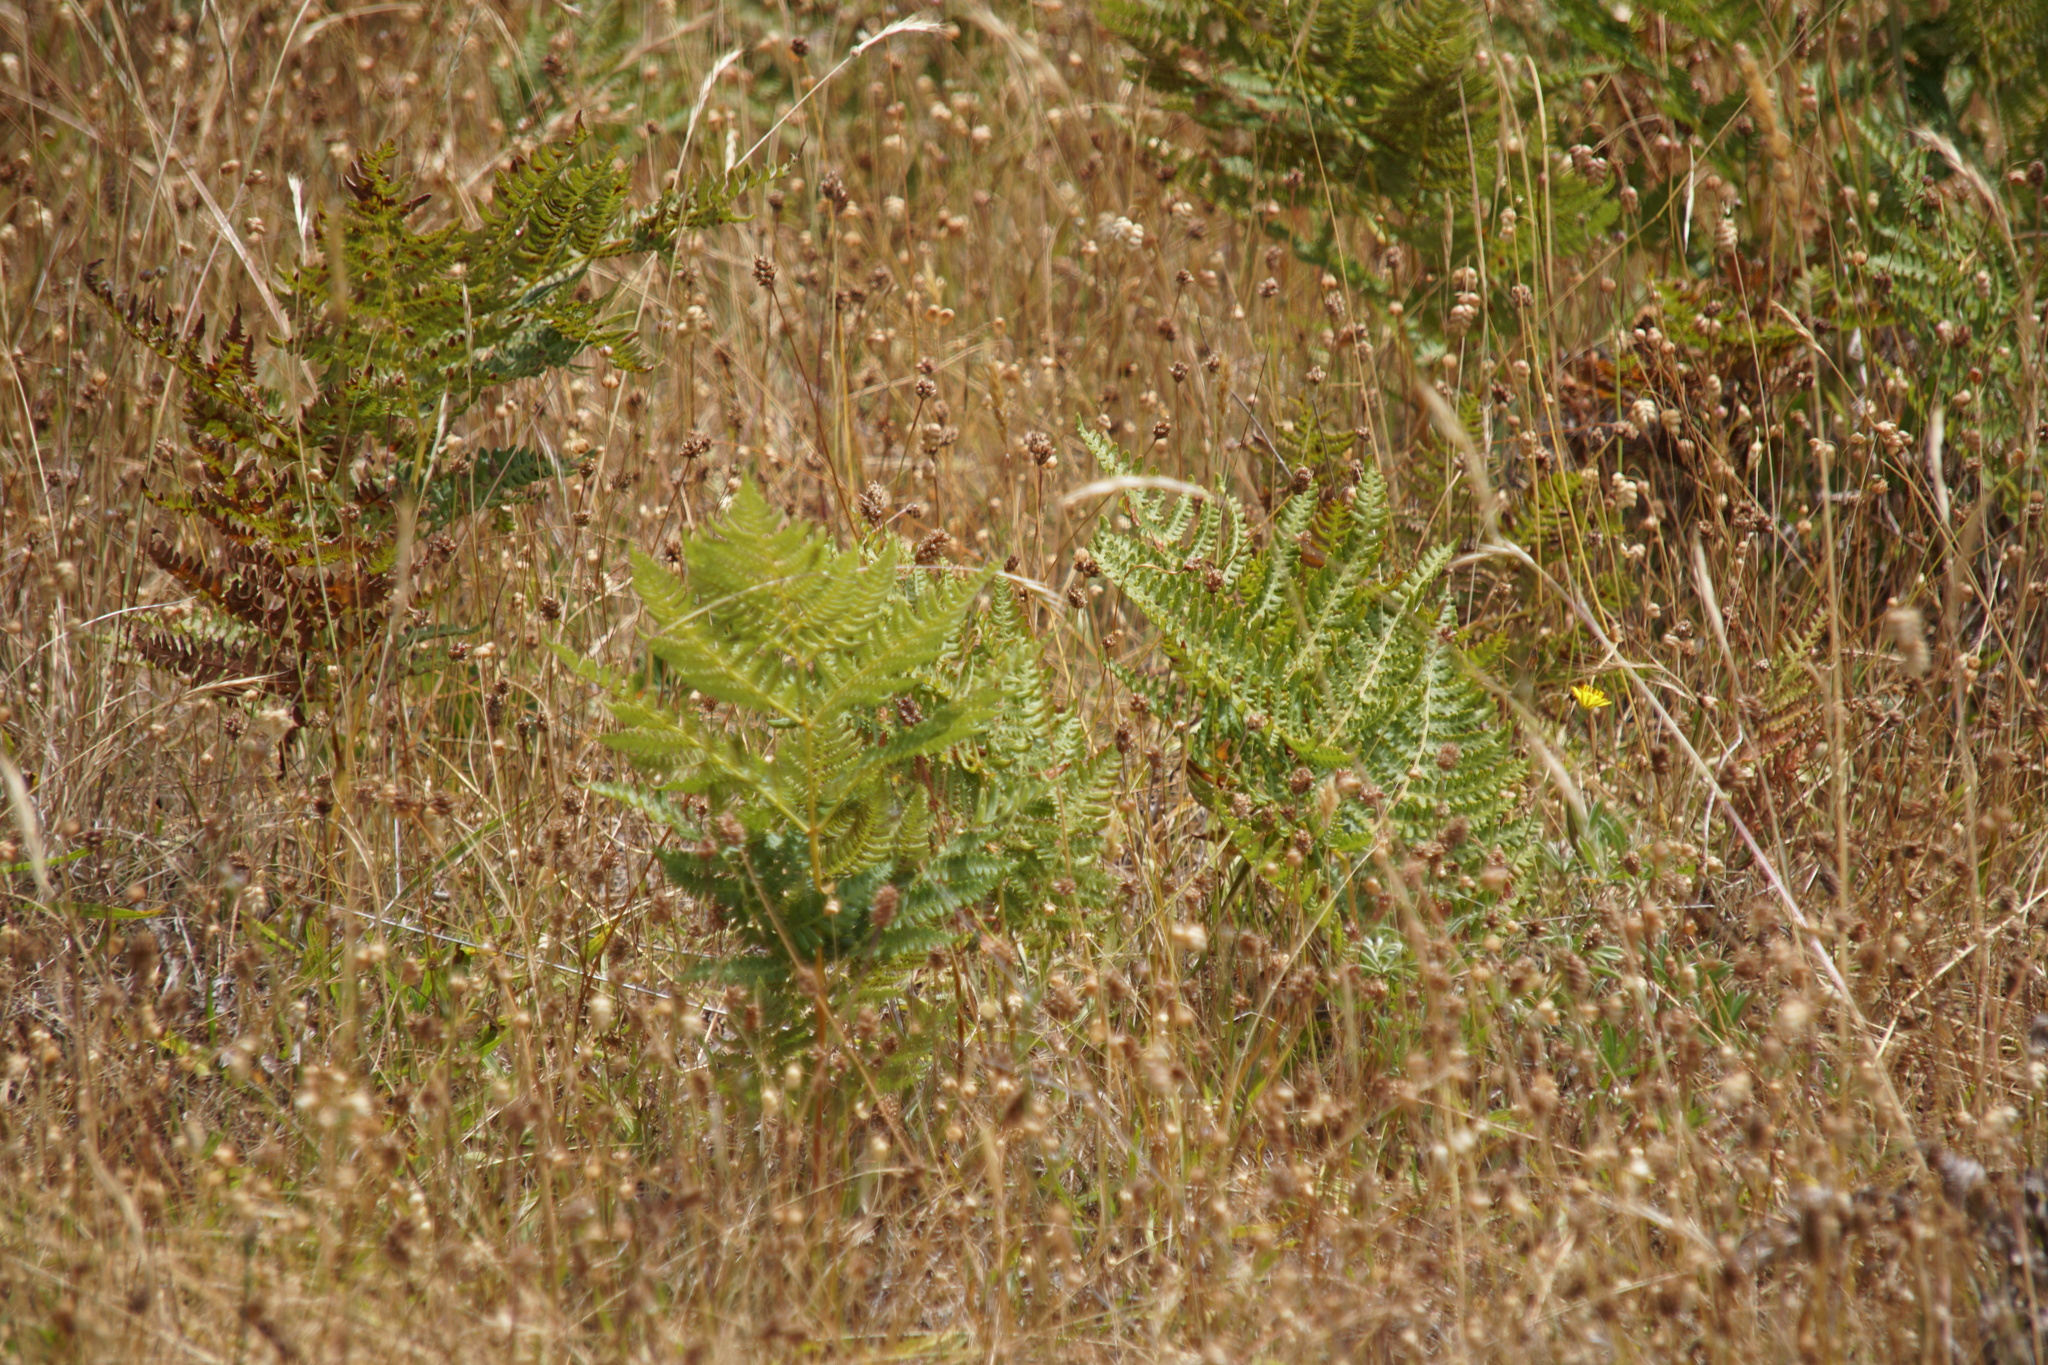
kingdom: Plantae
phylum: Tracheophyta
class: Polypodiopsida
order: Polypodiales
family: Dennstaedtiaceae
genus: Pteridium
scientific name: Pteridium aquilinum
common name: Bracken
